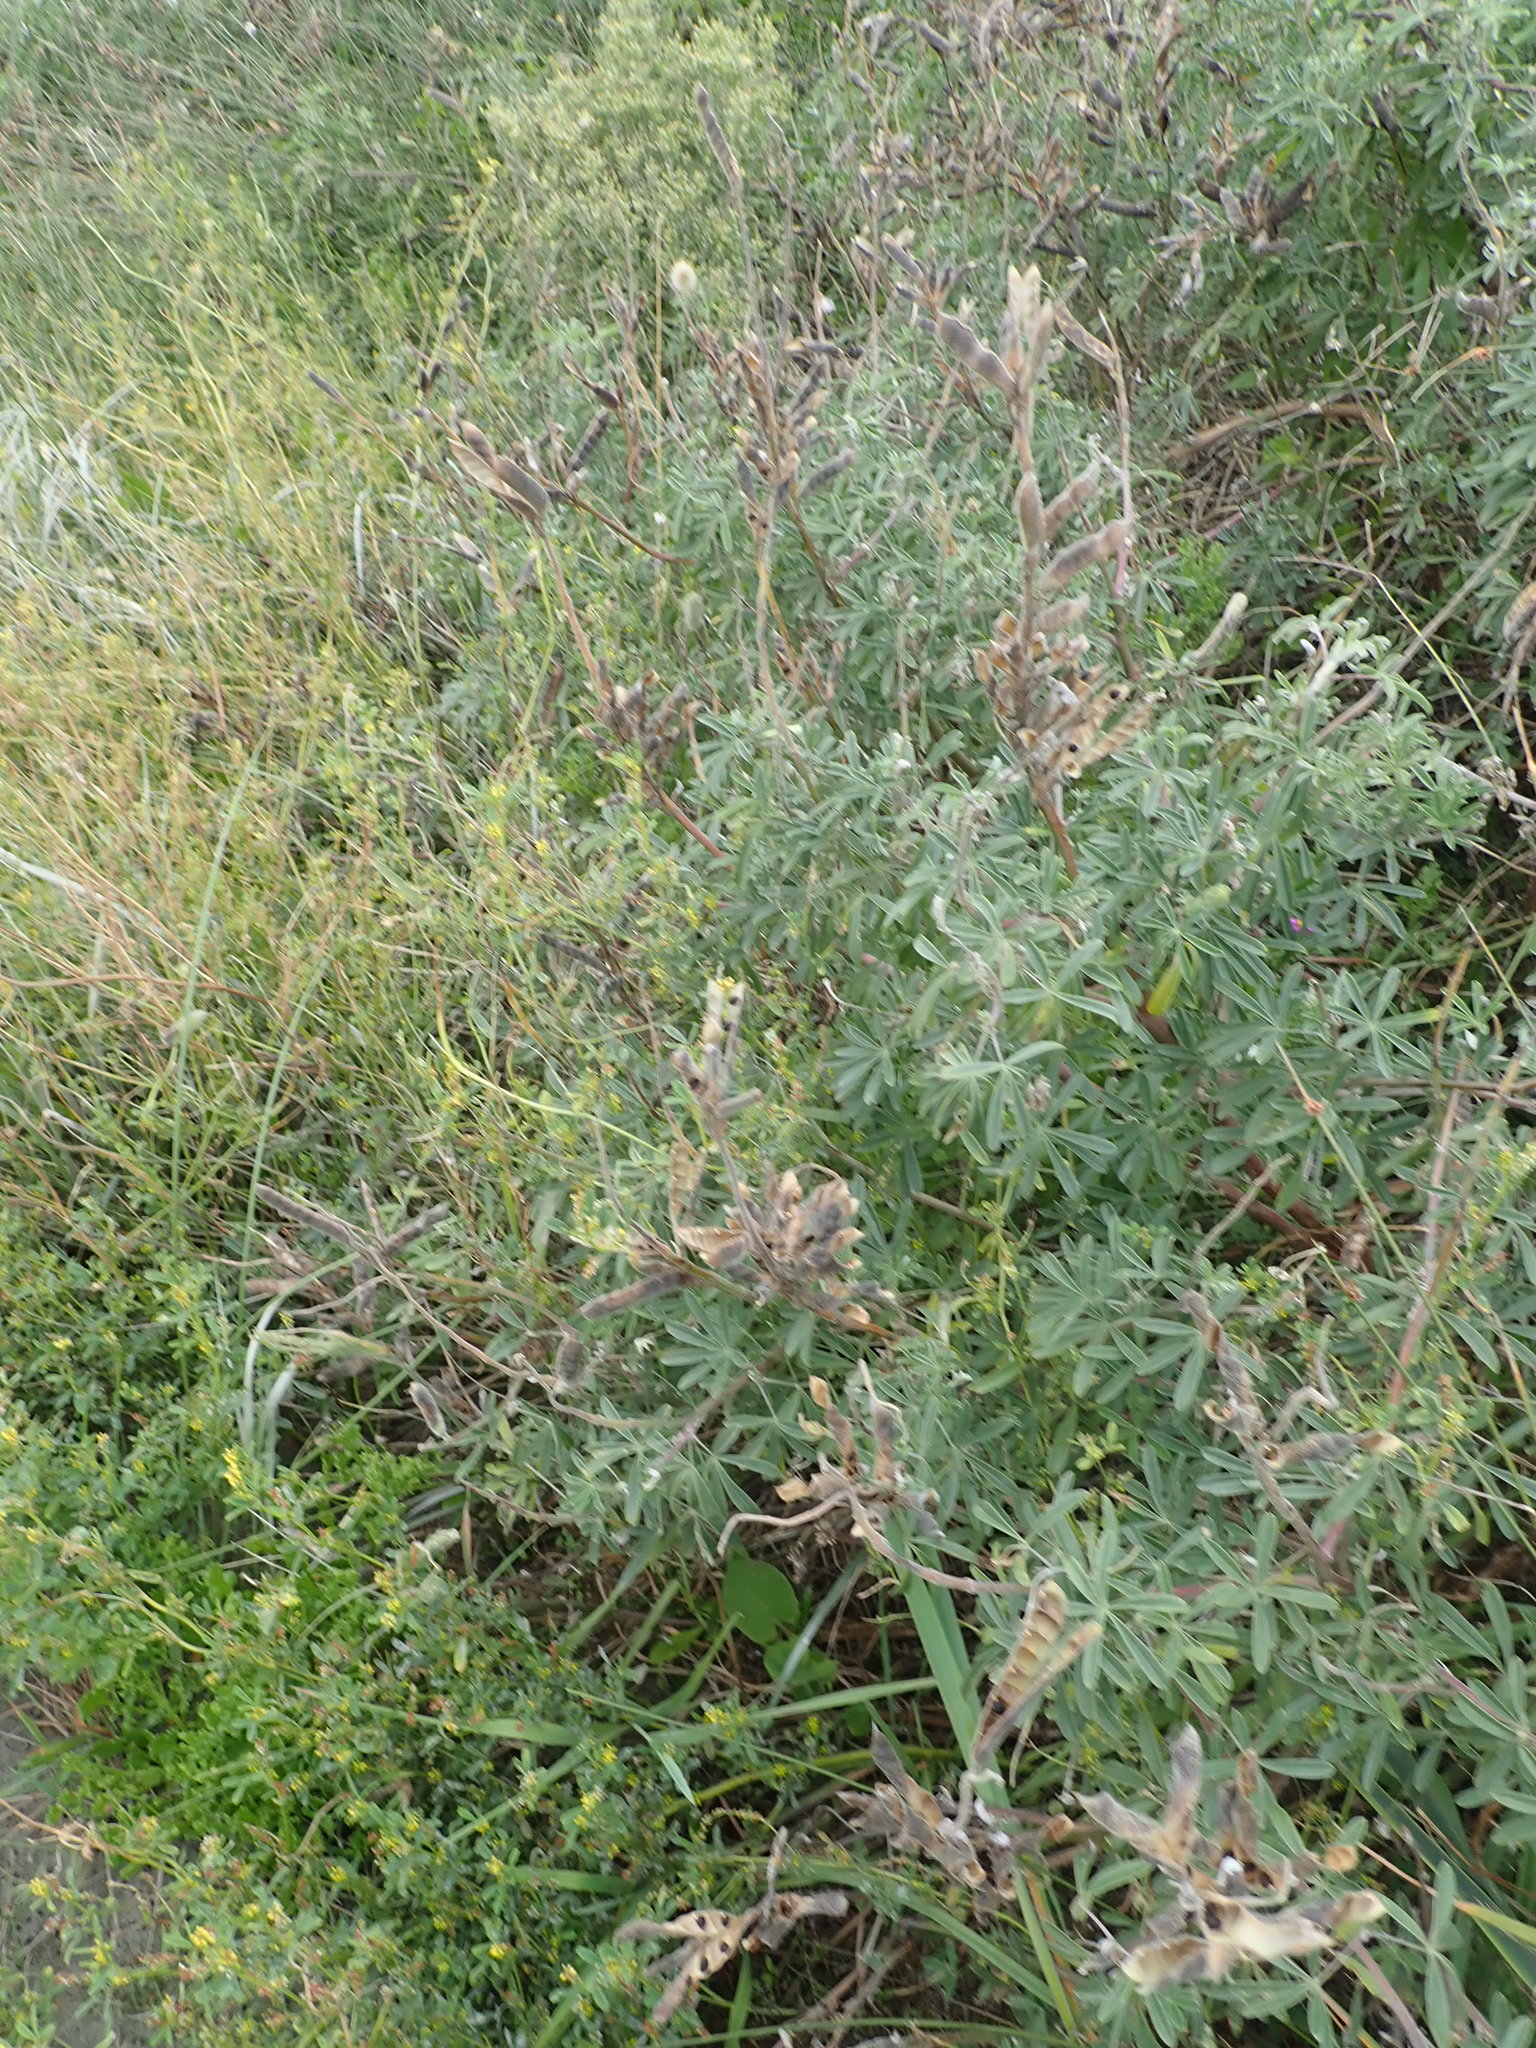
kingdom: Plantae
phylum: Tracheophyta
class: Magnoliopsida
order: Fabales
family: Fabaceae
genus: Lupinus
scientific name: Lupinus arboreus
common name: Yellow bush lupine
